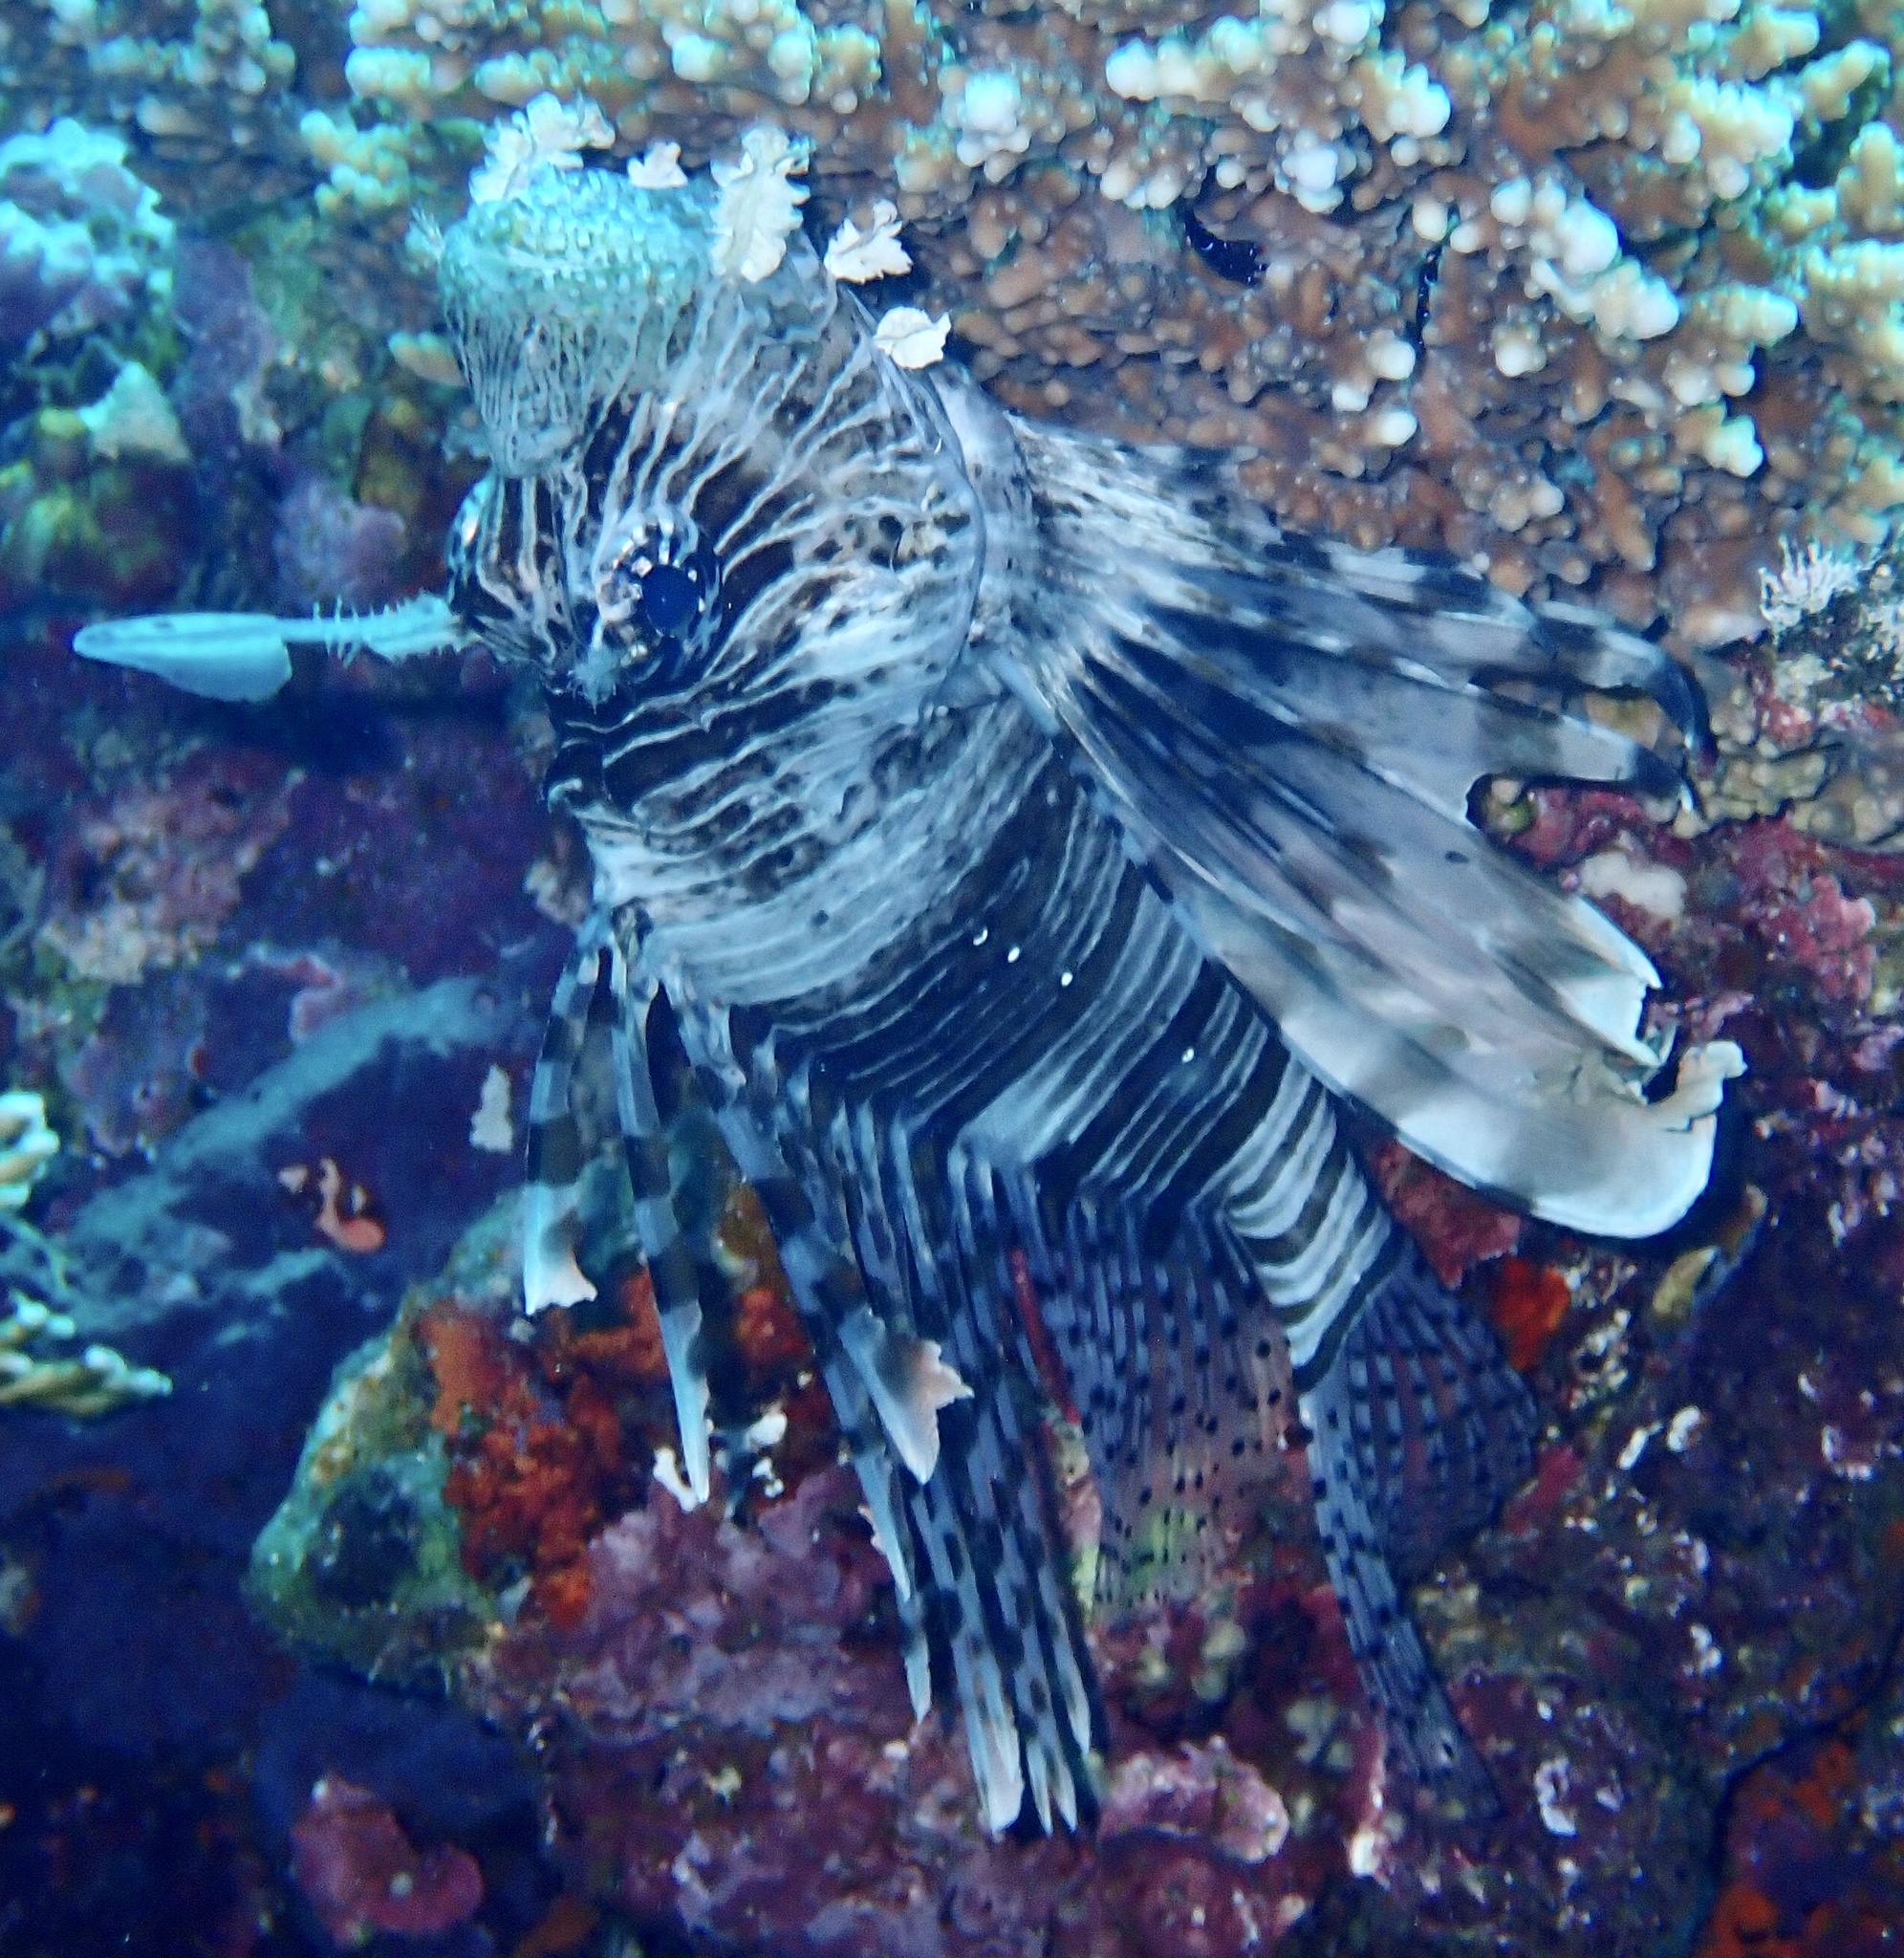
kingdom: Animalia
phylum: Chordata
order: Scorpaeniformes
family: Scorpaenidae
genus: Pterois
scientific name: Pterois miles
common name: Devil firefish
